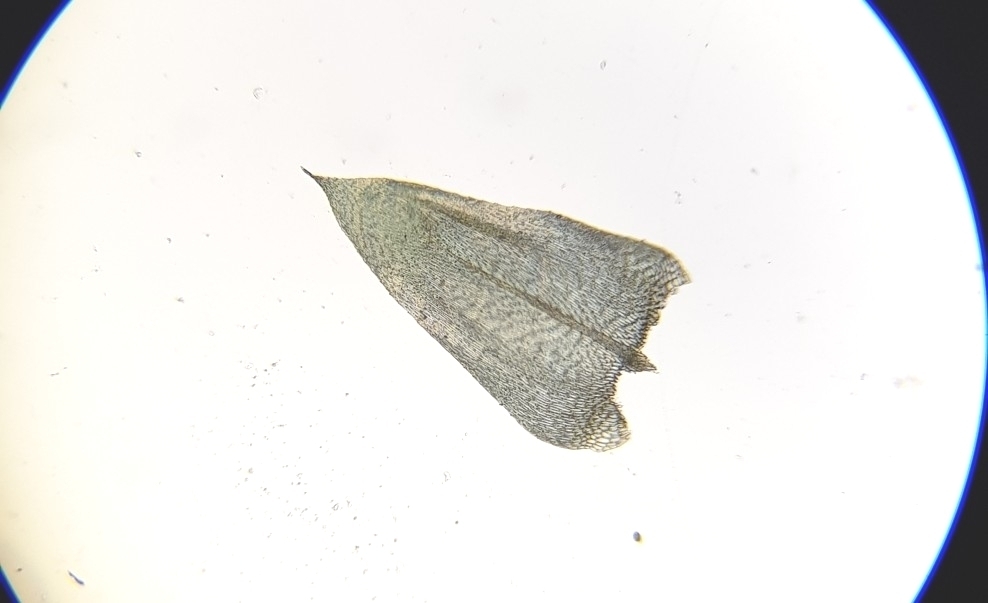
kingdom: Plantae
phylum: Bryophyta
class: Bryopsida
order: Hypnales
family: Brachytheciaceae
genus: Brachythecium
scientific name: Brachythecium rivulare
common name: River ragged moss
